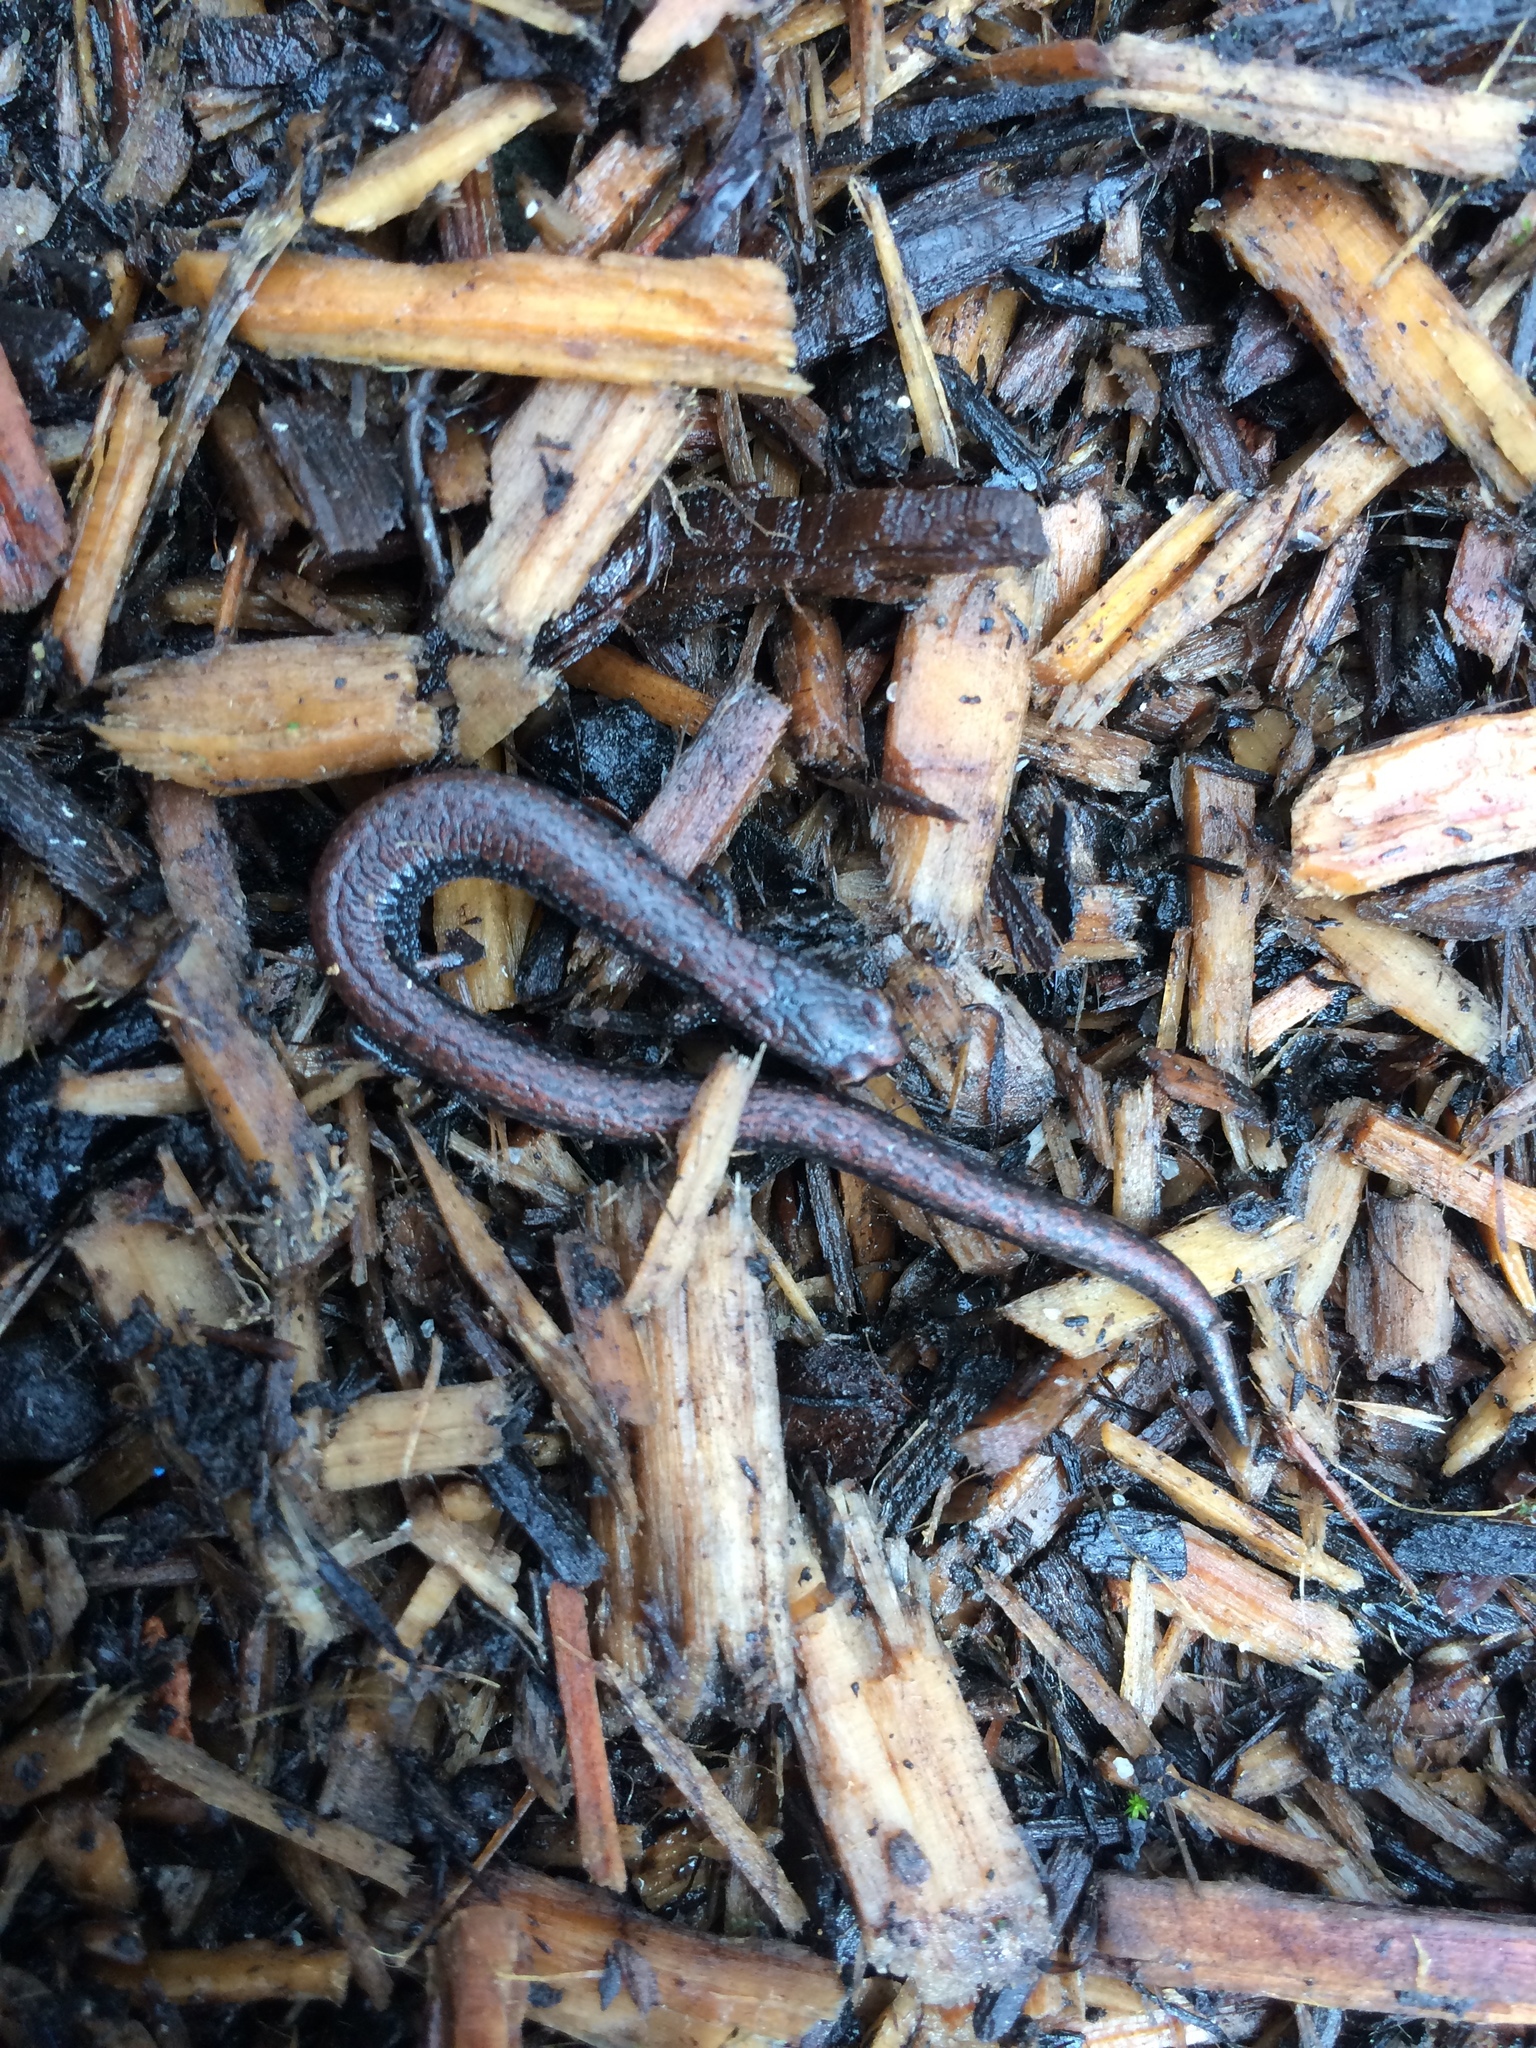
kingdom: Animalia
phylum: Chordata
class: Amphibia
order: Caudata
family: Plethodontidae
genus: Batrachoseps
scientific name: Batrachoseps attenuatus
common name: California slender salamander
